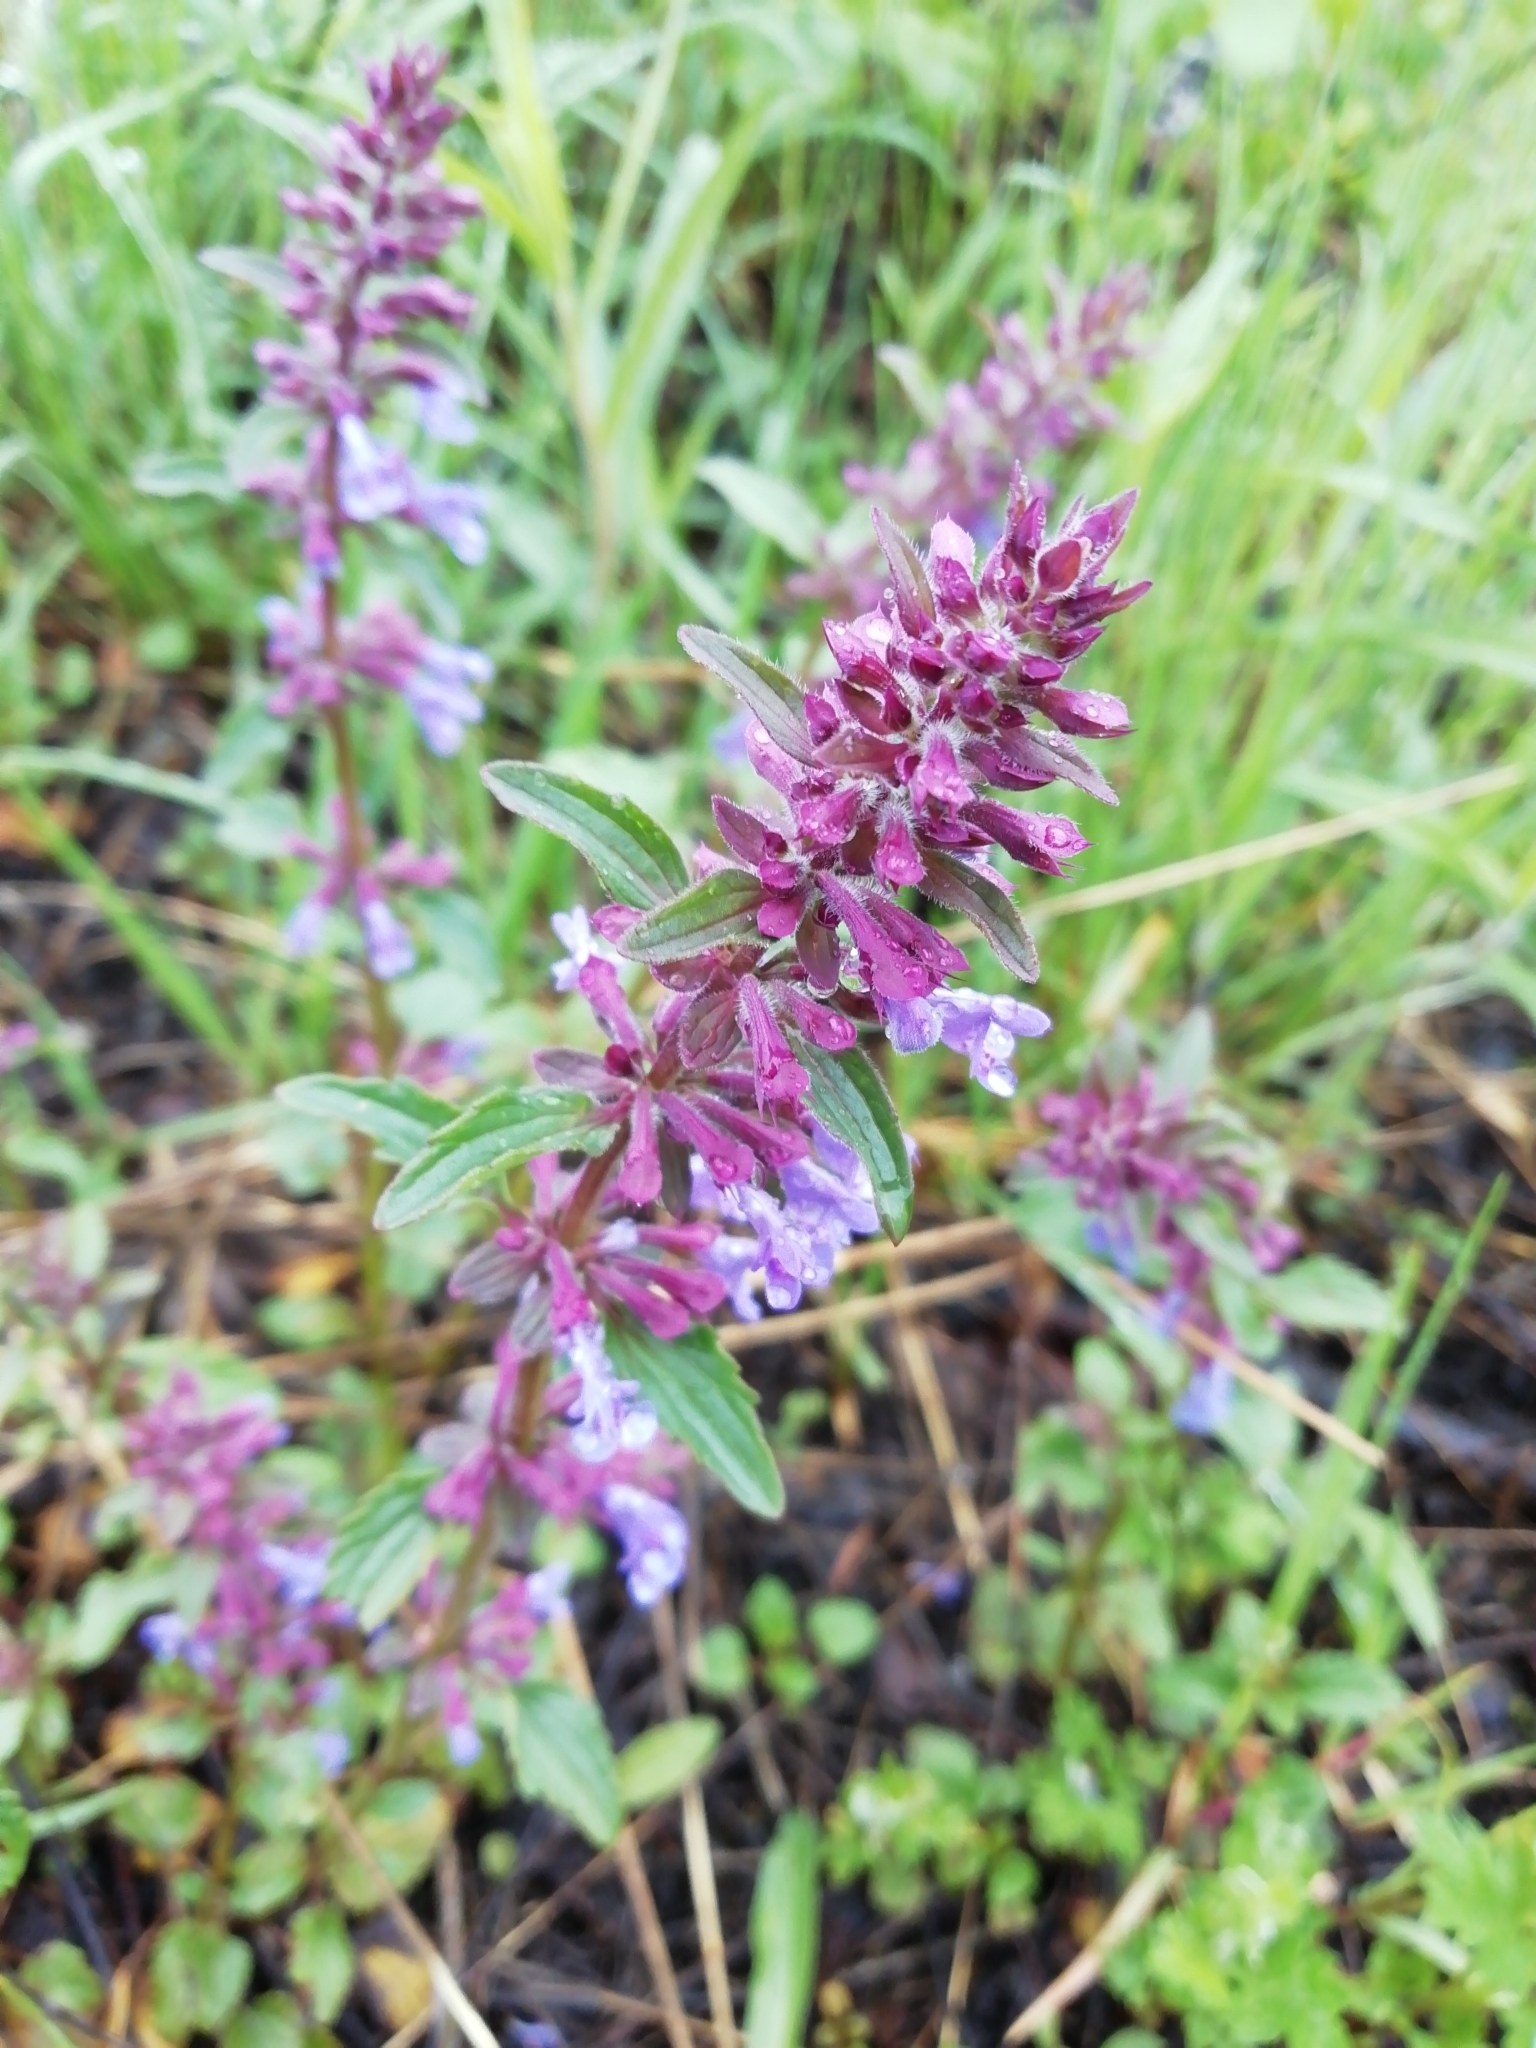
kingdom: Plantae
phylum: Tracheophyta
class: Magnoliopsida
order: Lamiales
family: Lamiaceae
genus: Dracocephalum
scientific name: Dracocephalum nutans
